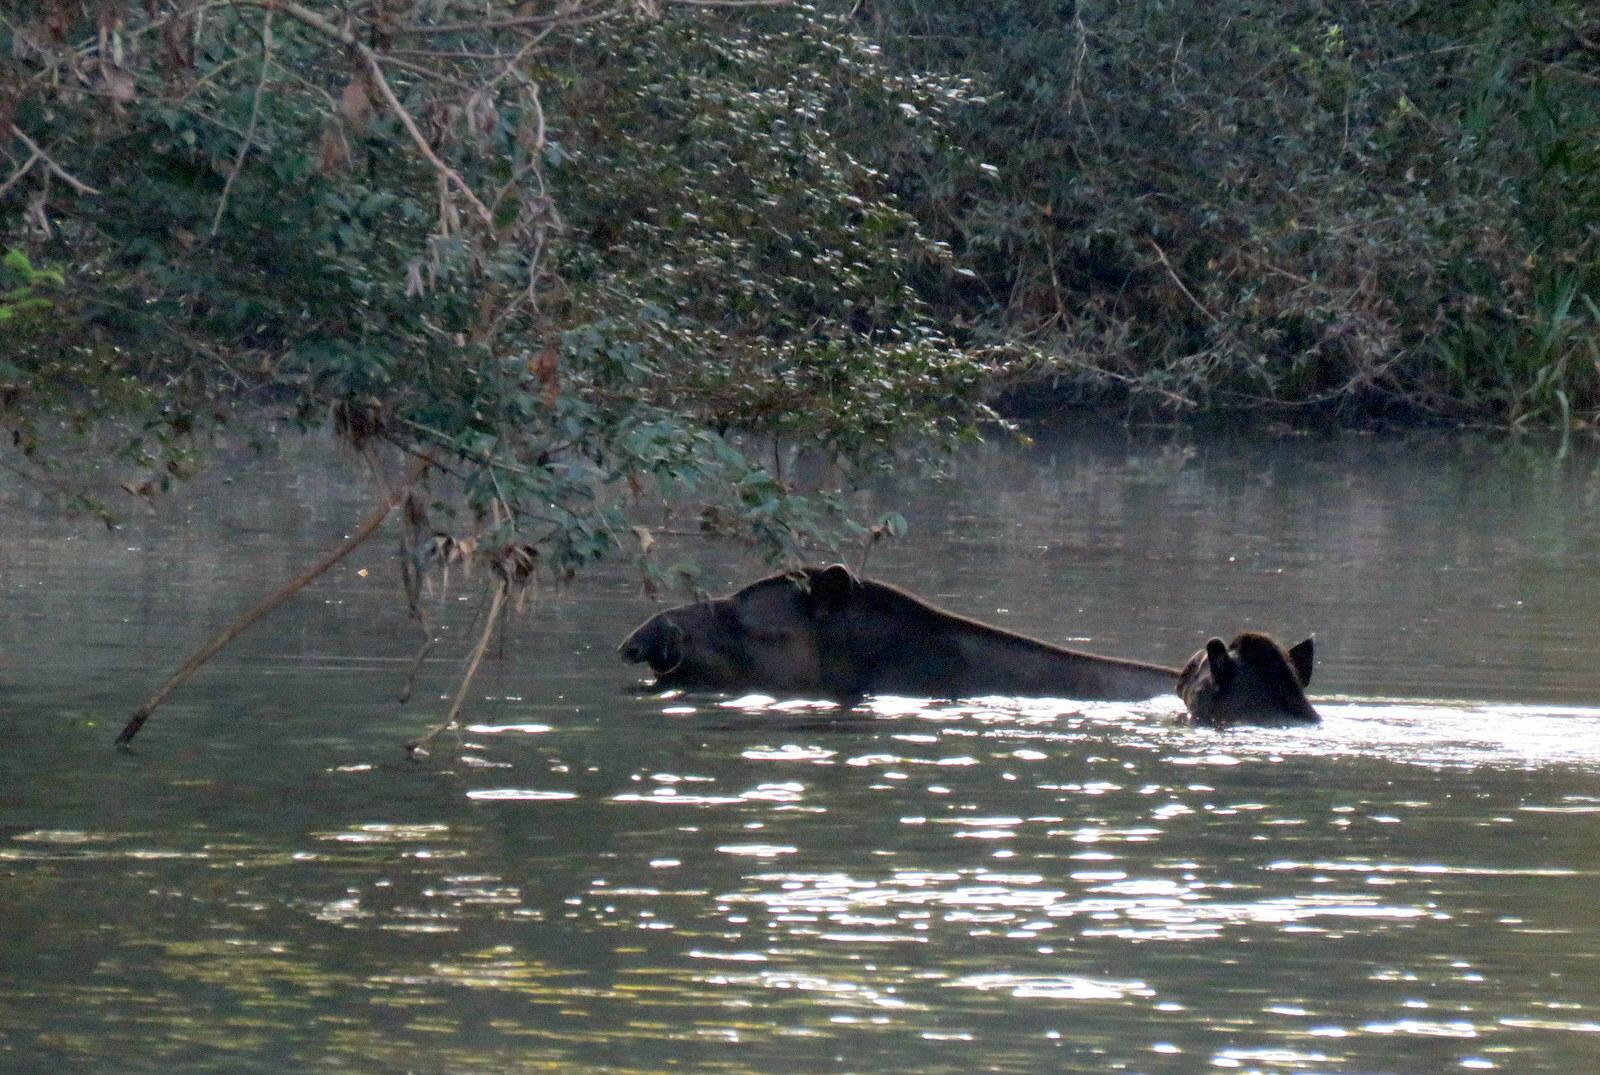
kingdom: Animalia
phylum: Chordata
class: Mammalia
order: Perissodactyla
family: Tapiridae
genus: Tapirus
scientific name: Tapirus terrestris
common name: Brazilian tapir
